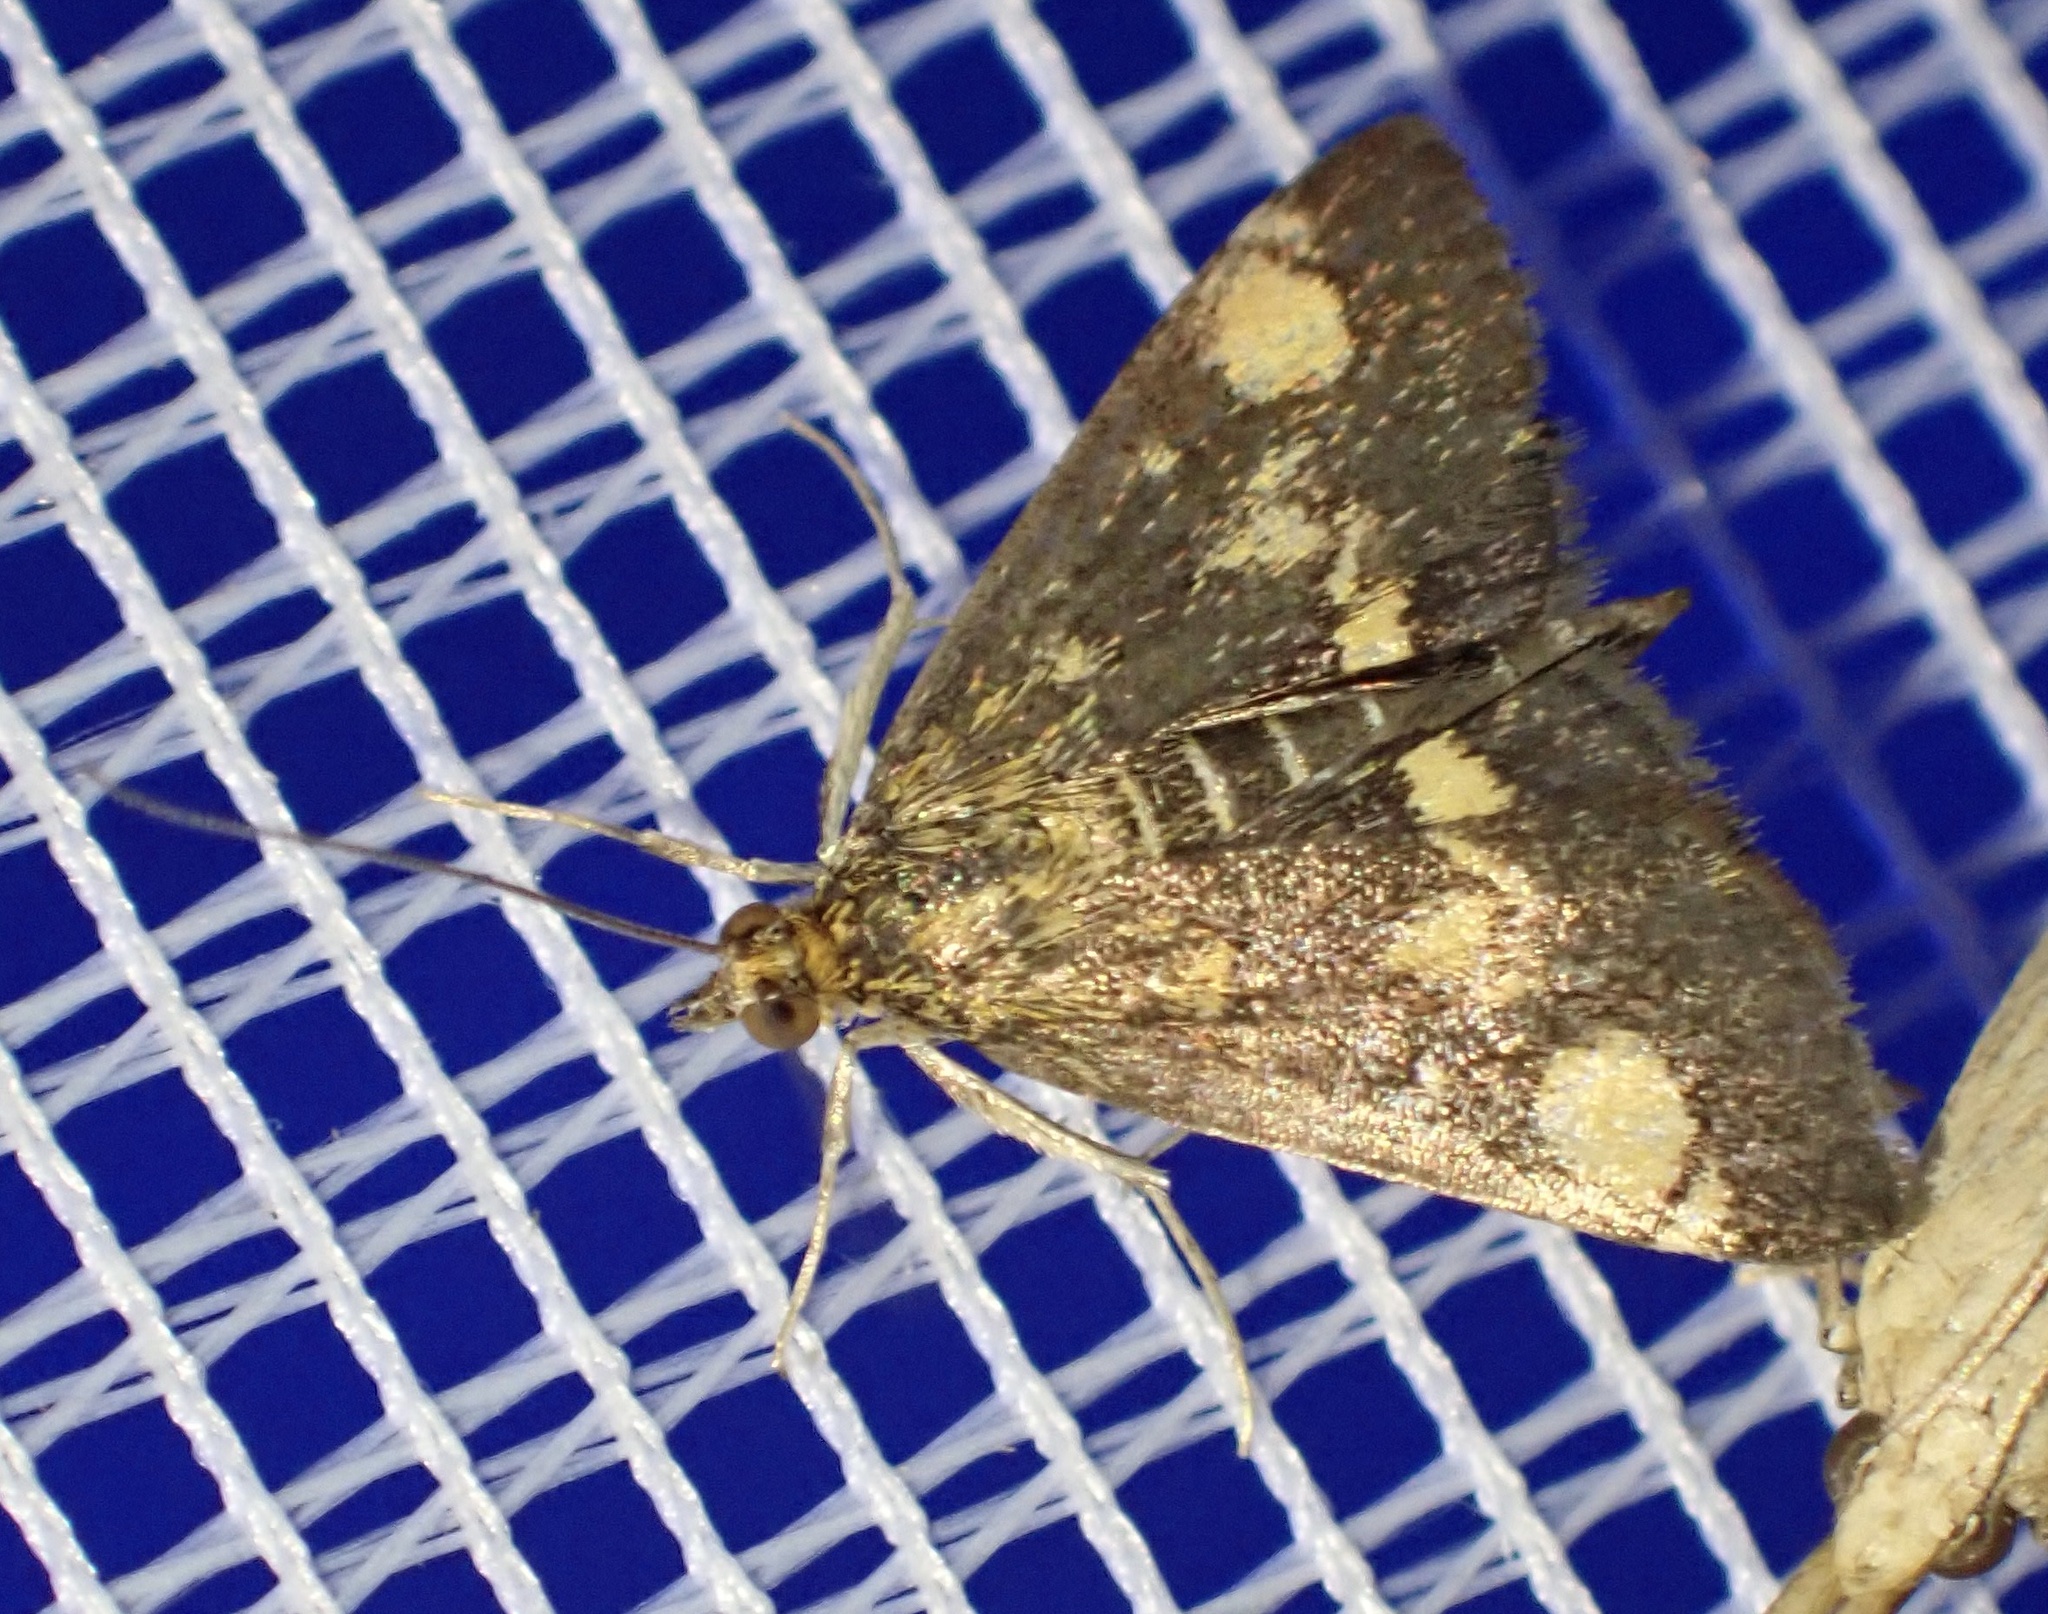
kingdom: Animalia
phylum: Arthropoda
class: Insecta
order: Lepidoptera
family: Crambidae
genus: Pyrausta
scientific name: Pyrausta aurata
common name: Small purple & gold
